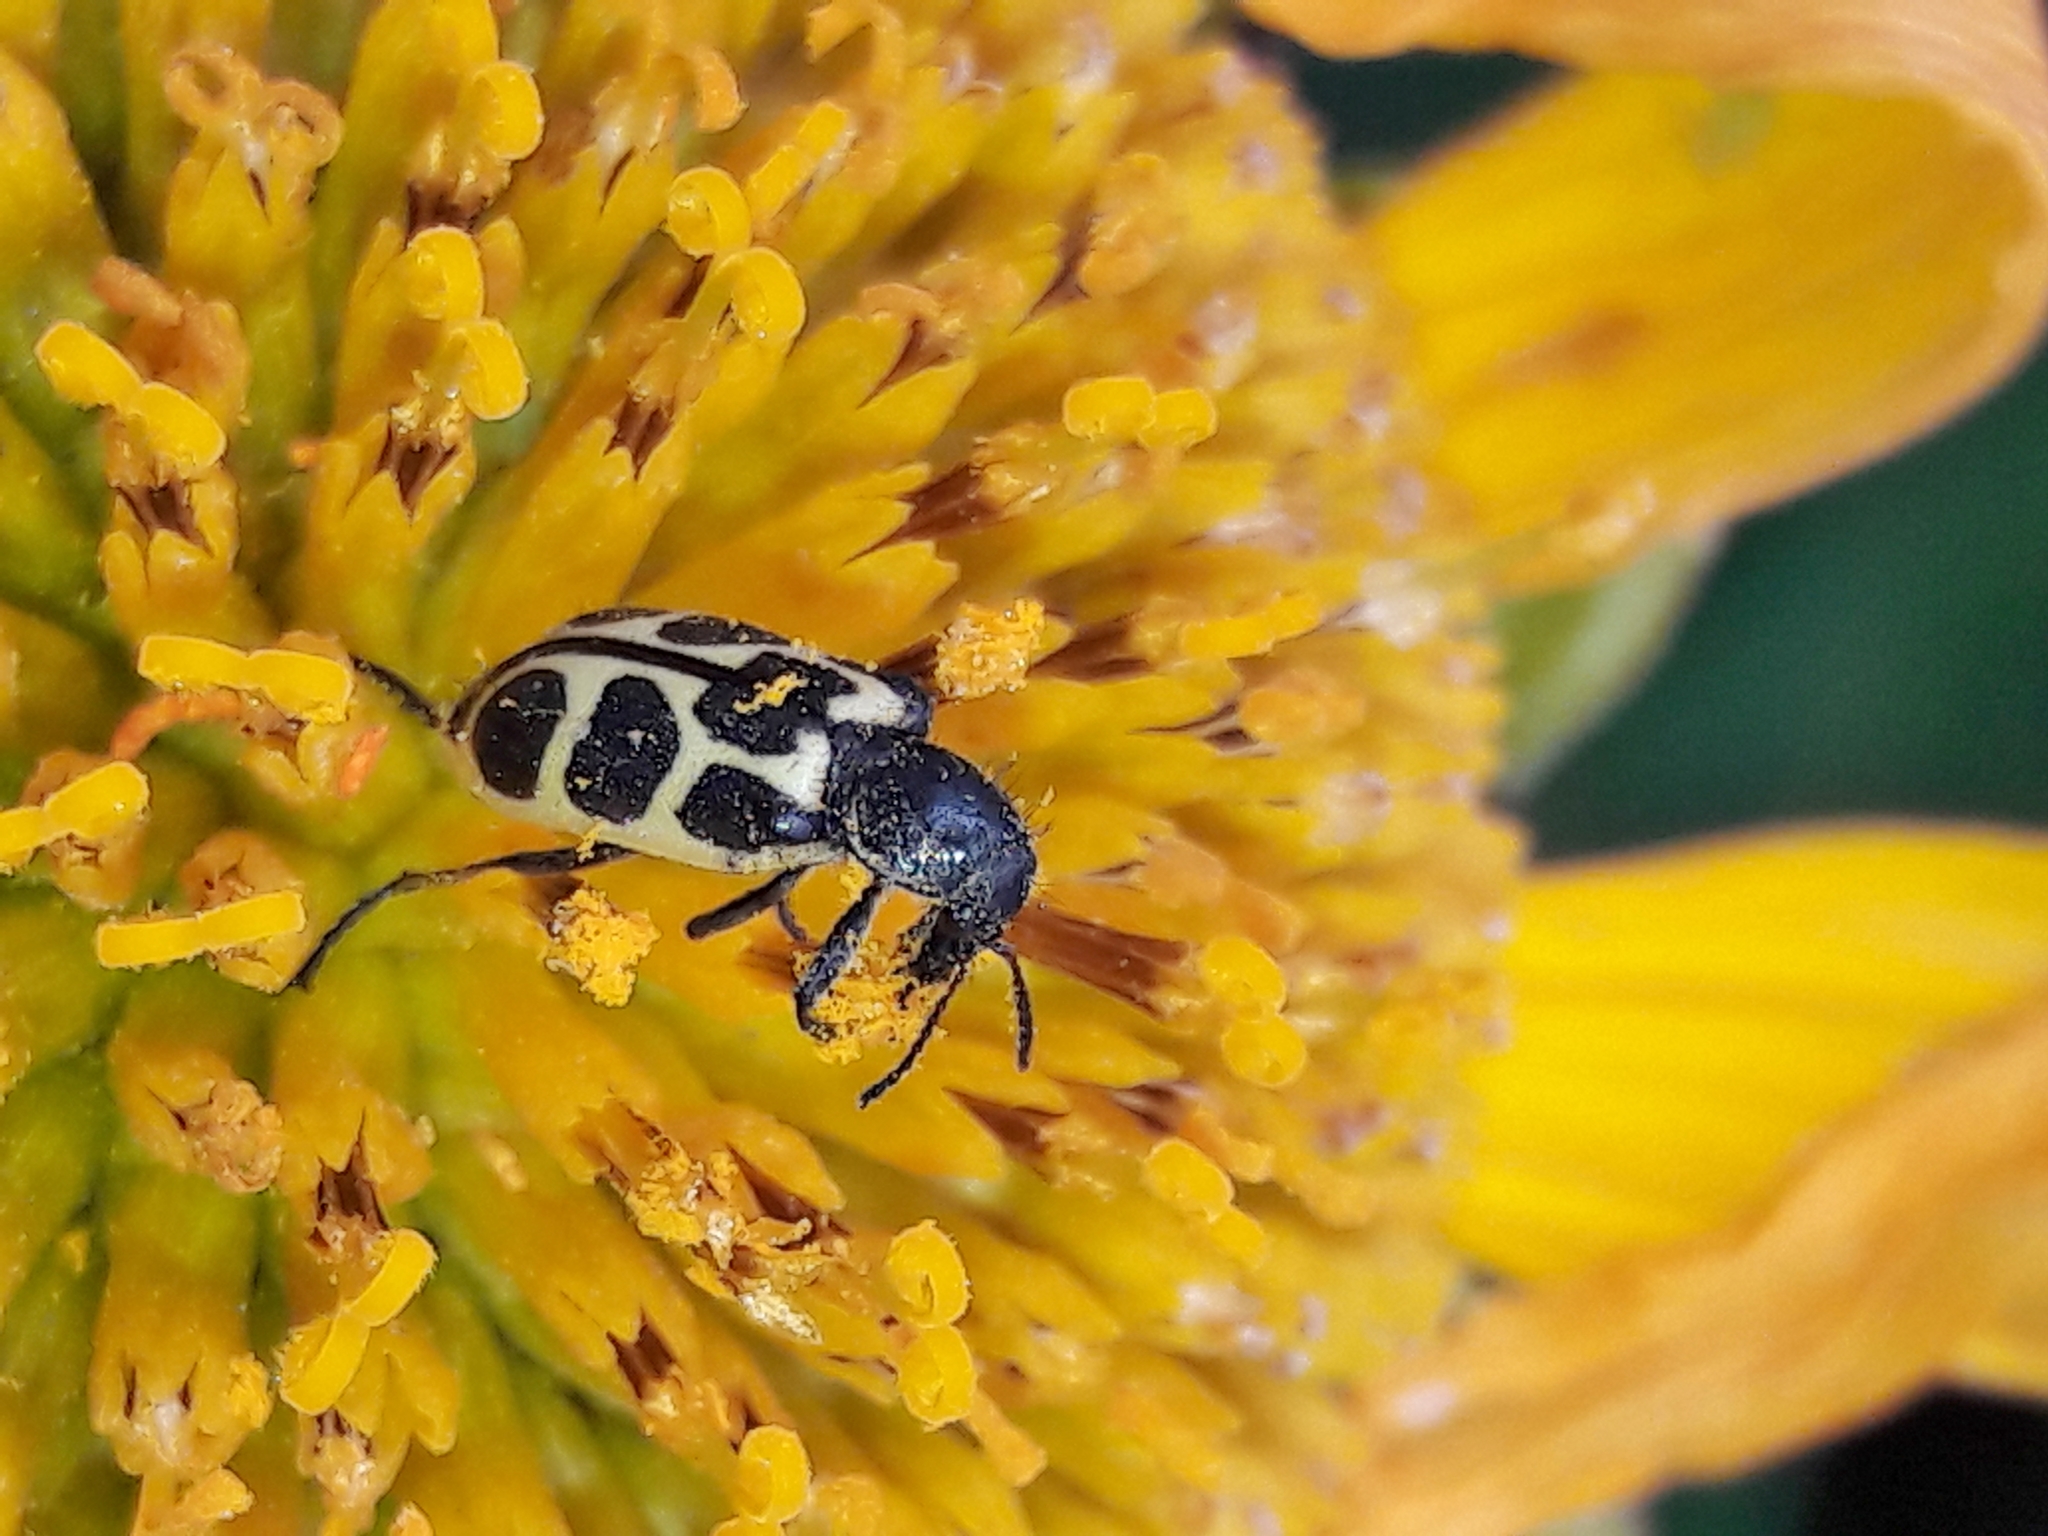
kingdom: Animalia
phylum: Arthropoda
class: Insecta
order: Coleoptera
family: Melyridae
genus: Astylus
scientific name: Astylus
